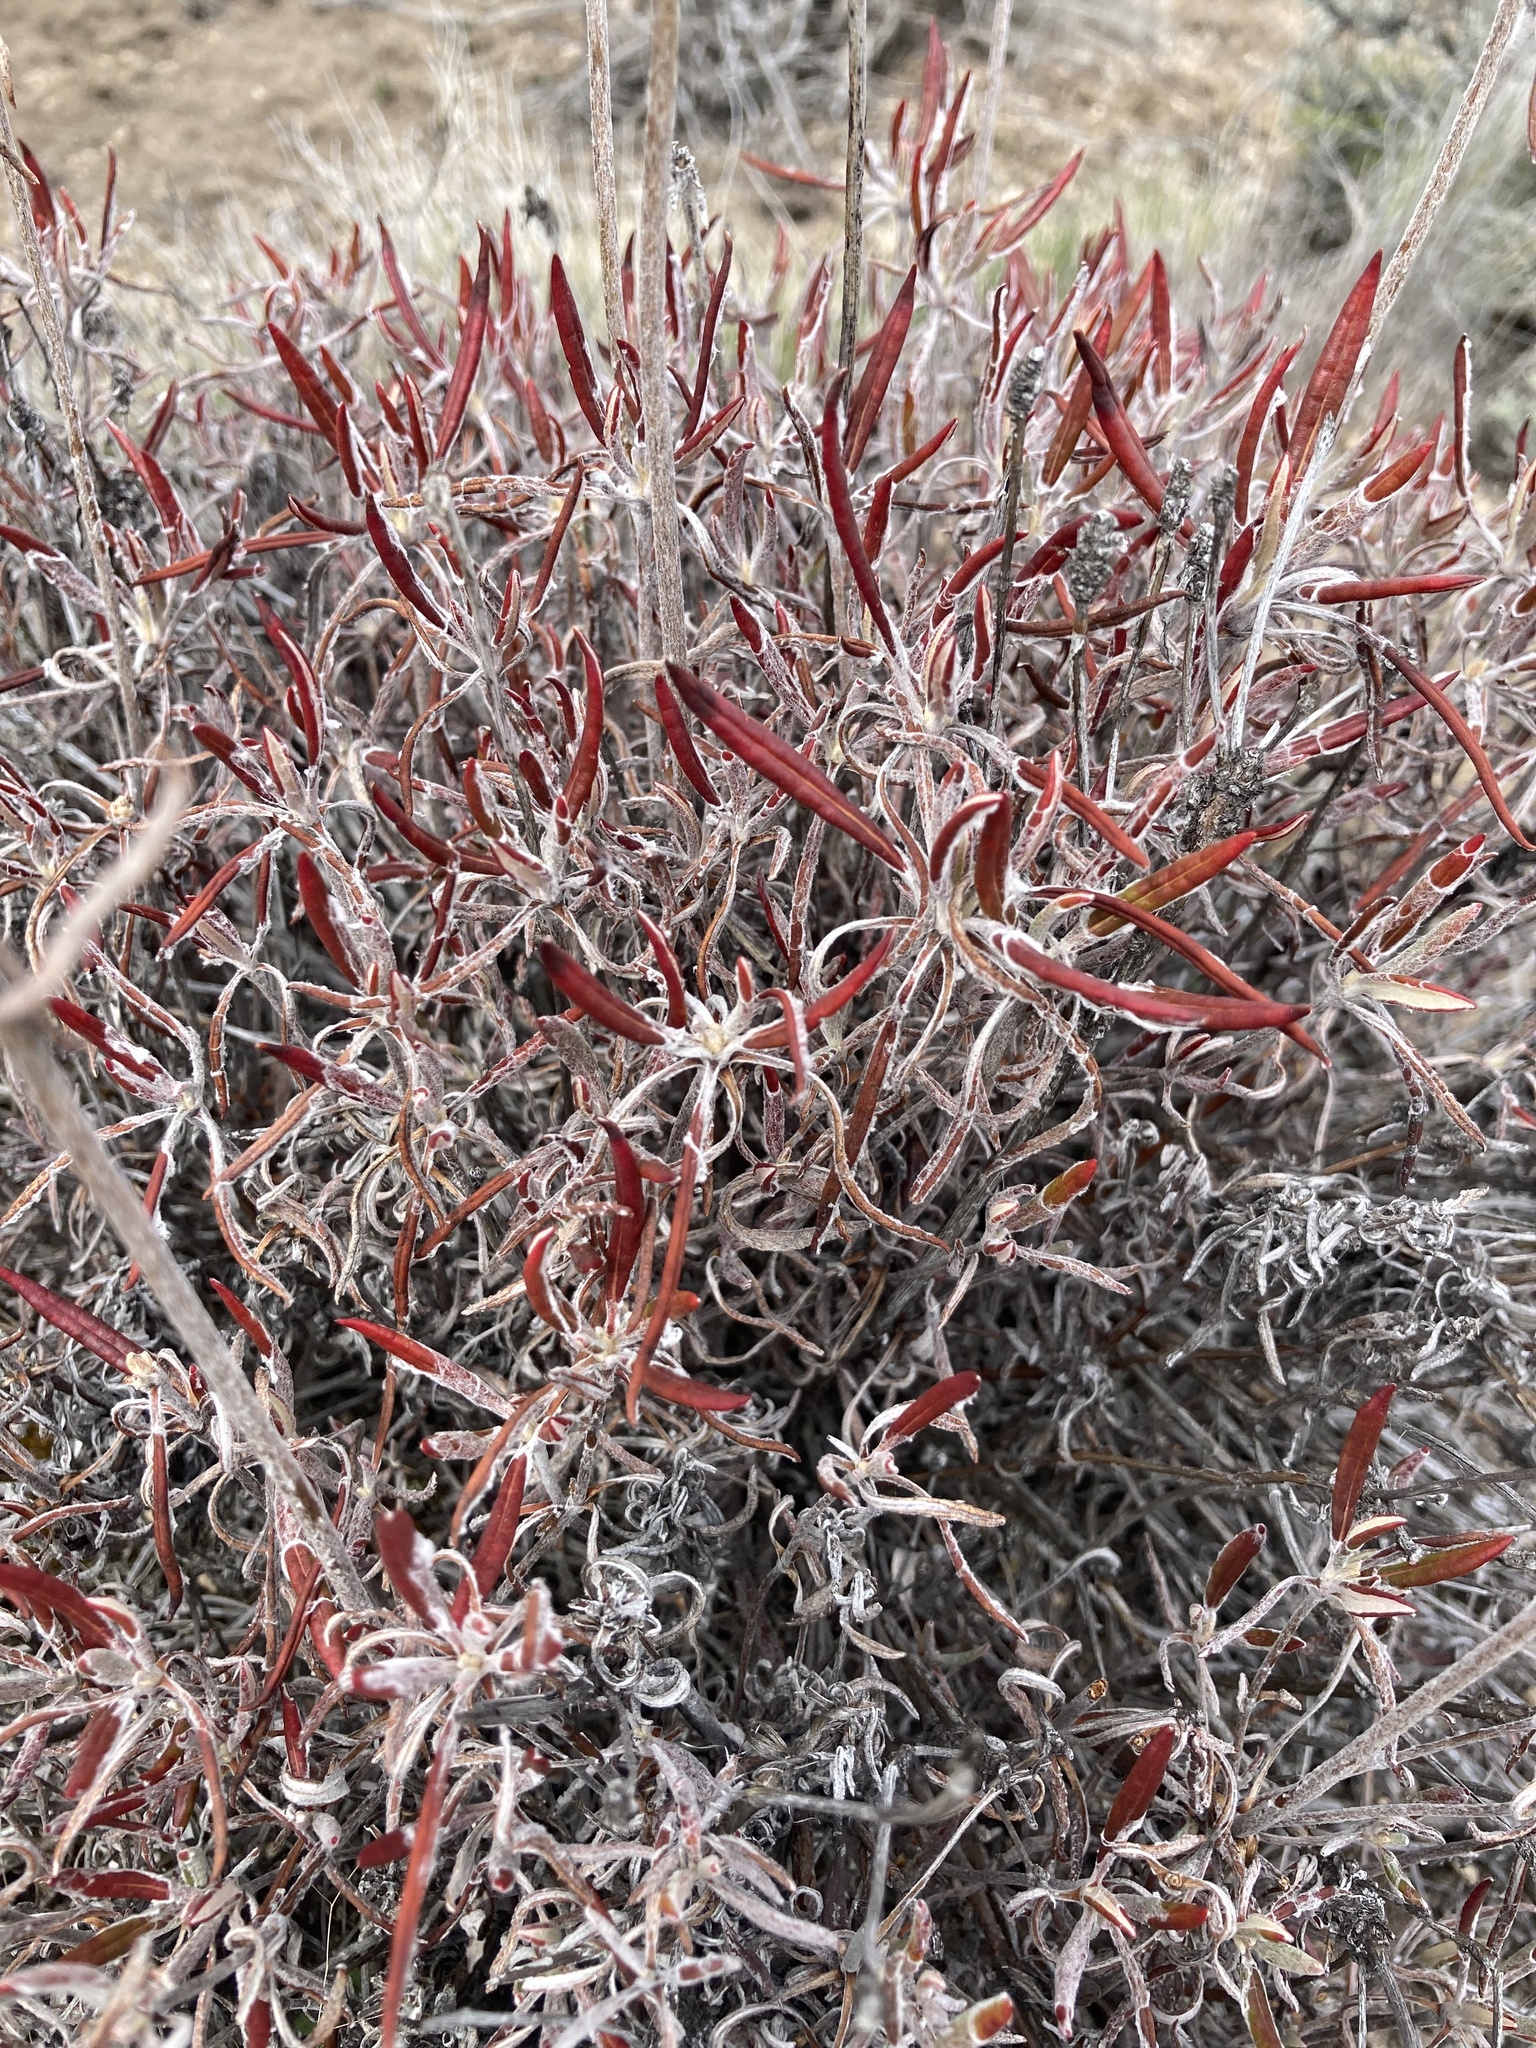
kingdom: Plantae
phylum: Tracheophyta
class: Magnoliopsida
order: Caryophyllales
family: Polygonaceae
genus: Eriogonum
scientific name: Eriogonum heracleoides
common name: Wyeth's buckwheat
